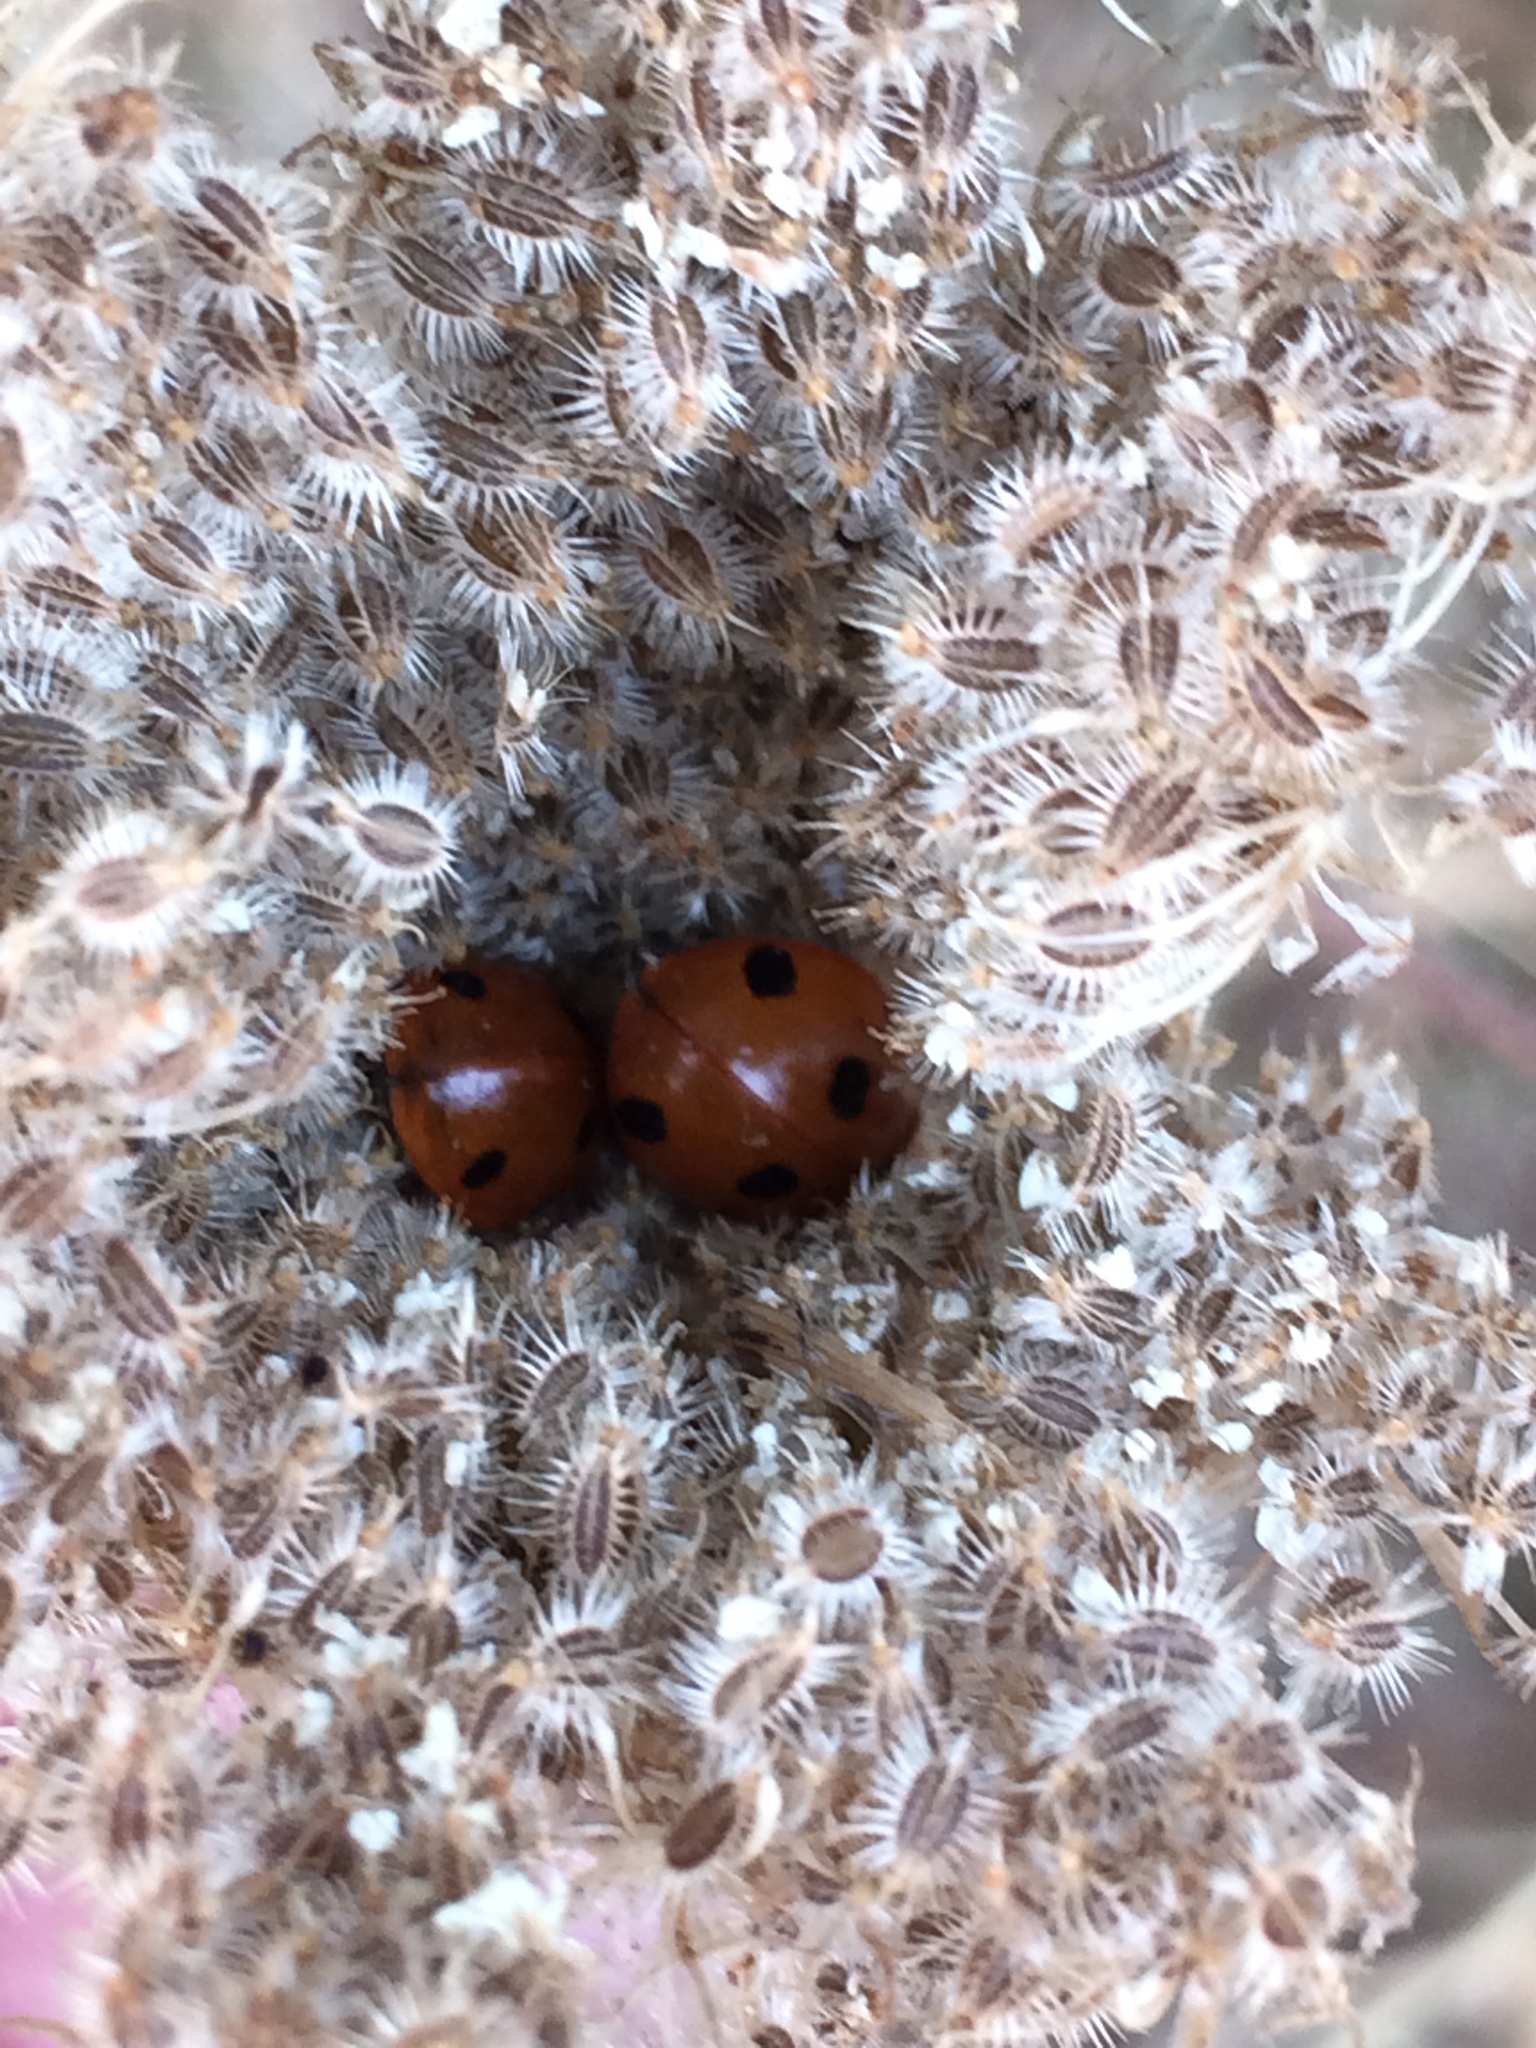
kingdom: Animalia
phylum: Arthropoda
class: Insecta
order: Coleoptera
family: Coccinellidae
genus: Coccinella
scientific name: Coccinella septempunctata
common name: Sevenspotted lady beetle
